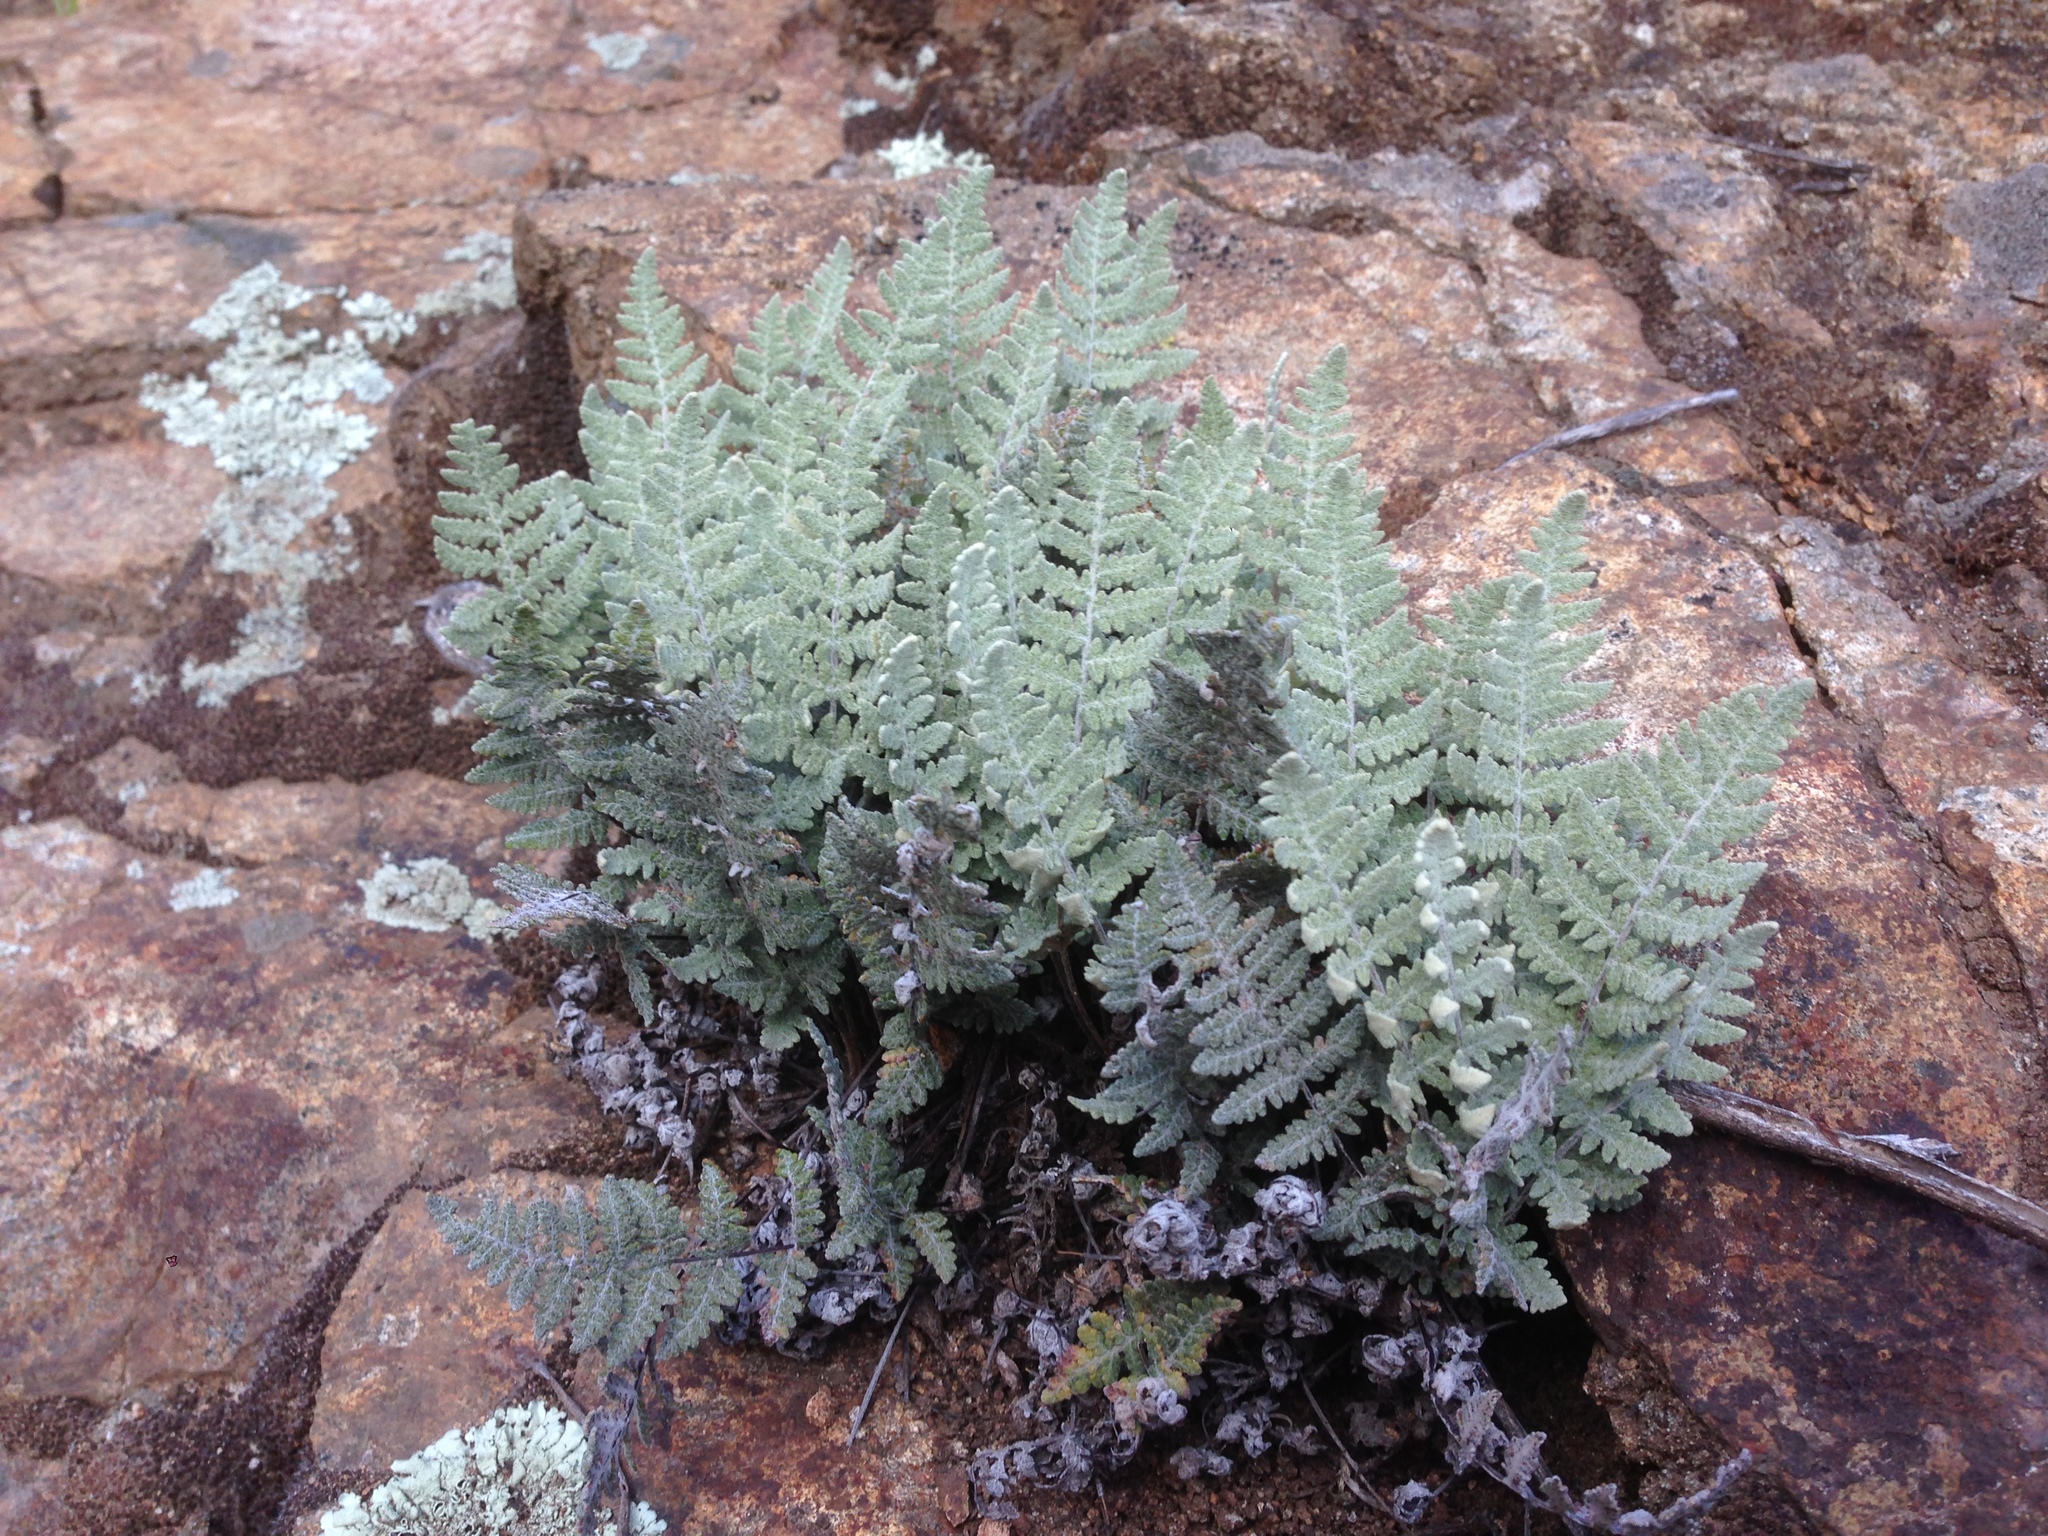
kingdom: Plantae
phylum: Tracheophyta
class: Polypodiopsida
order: Polypodiales
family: Pteridaceae
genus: Myriopteris
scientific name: Myriopteris newberryi
